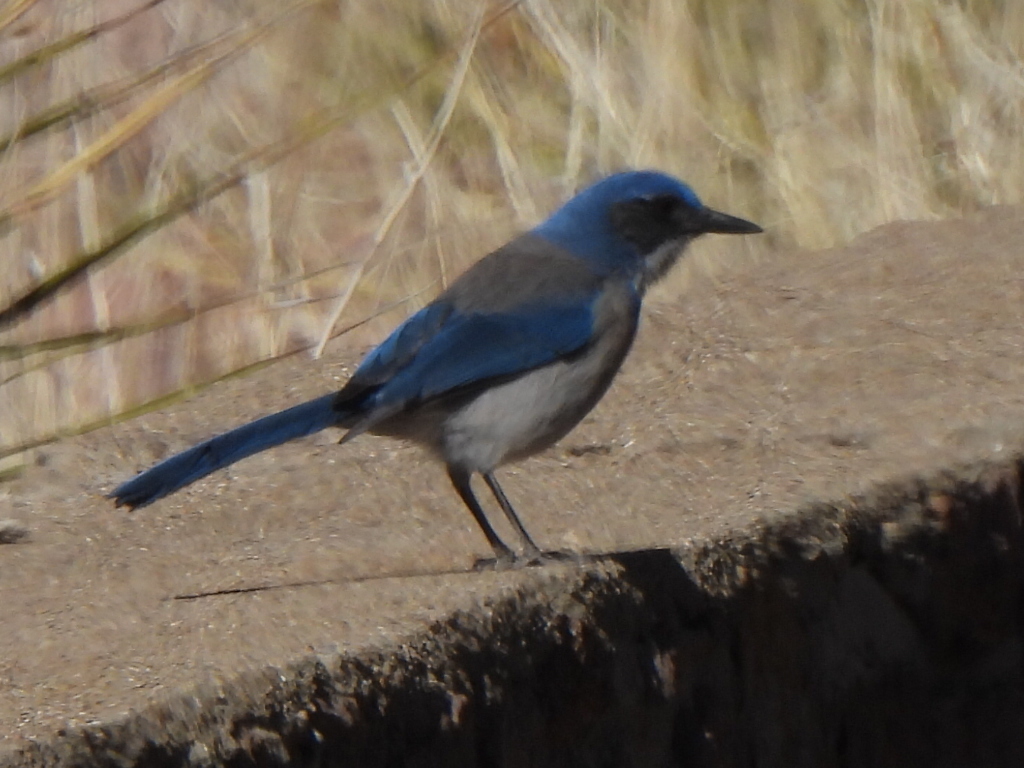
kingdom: Animalia
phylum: Chordata
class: Aves
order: Passeriformes
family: Corvidae
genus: Aphelocoma
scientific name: Aphelocoma woodhouseii
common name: Woodhouse's scrub-jay
